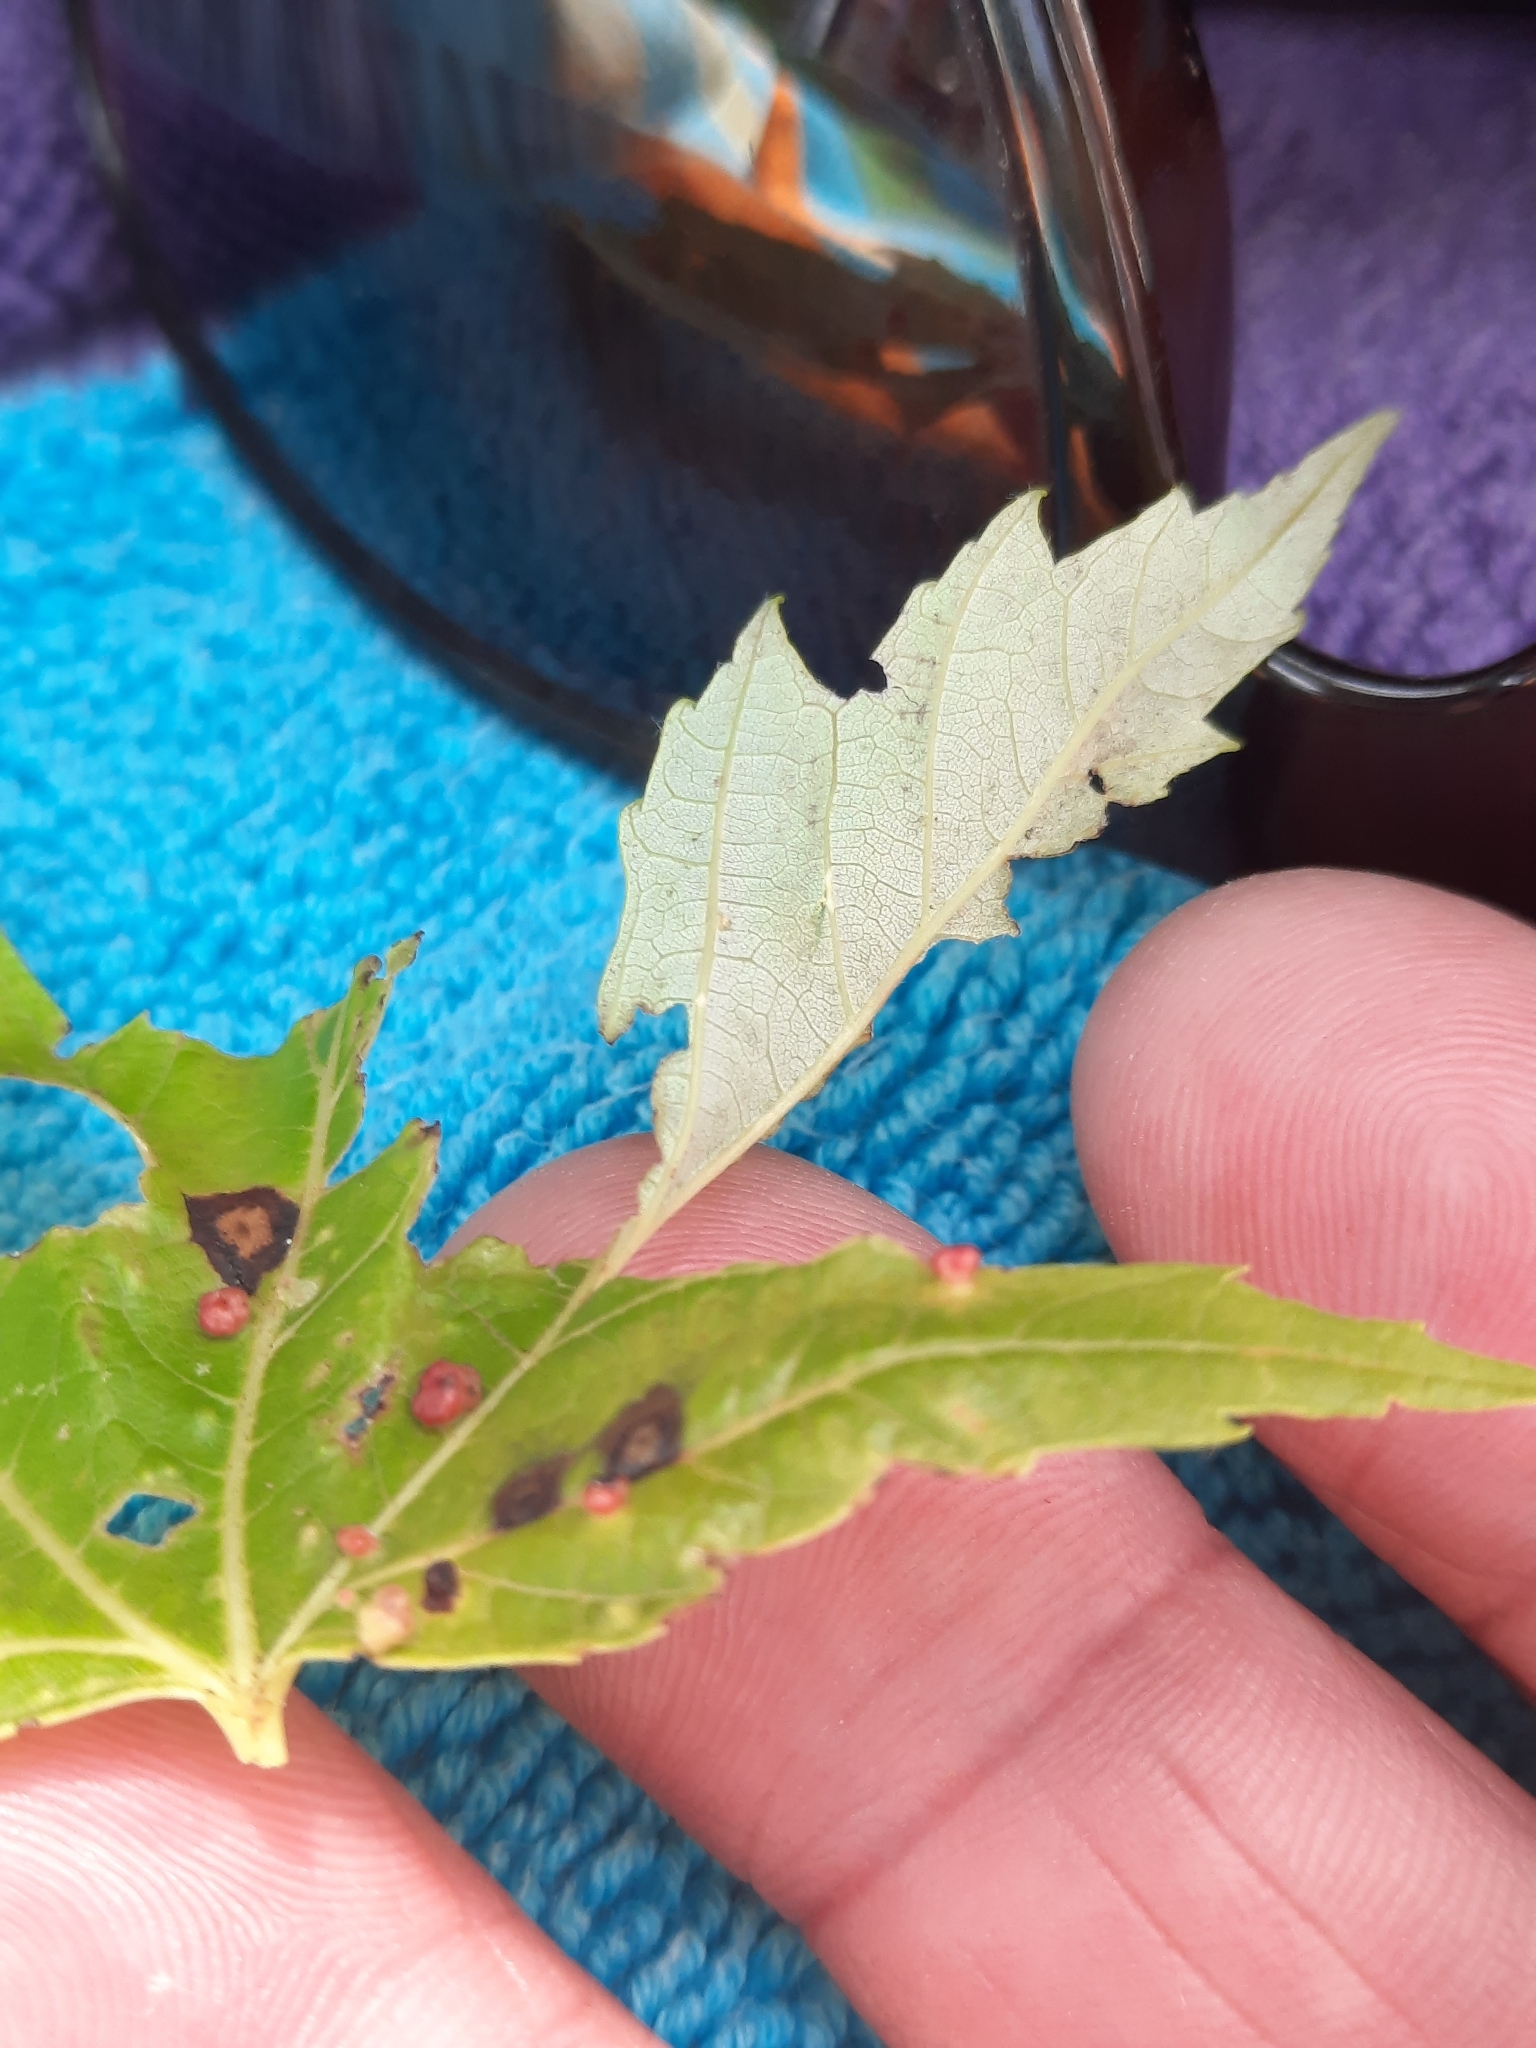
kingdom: Animalia
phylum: Arthropoda
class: Arachnida
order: Trombidiformes
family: Eriophyidae
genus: Vasates
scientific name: Vasates quadripedes
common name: Maple bladder gall mite
